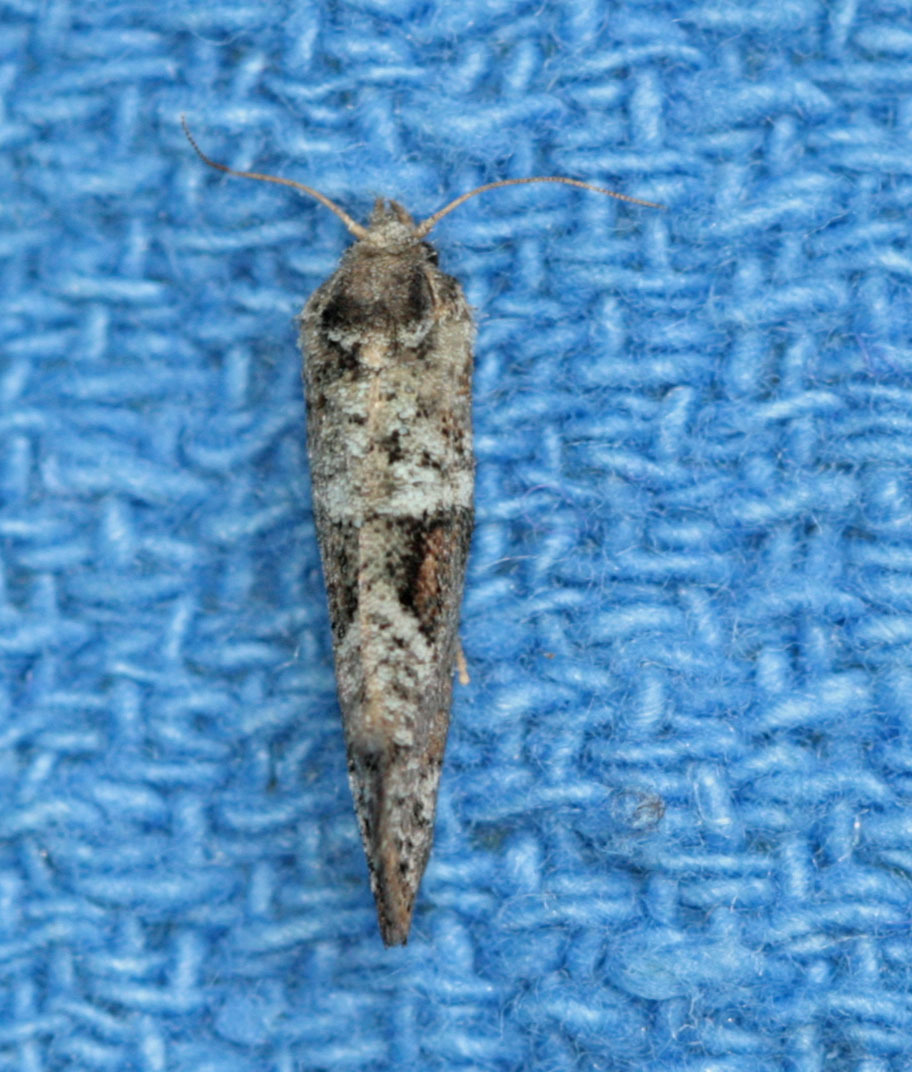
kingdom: Animalia
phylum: Arthropoda
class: Insecta
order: Lepidoptera
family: Tineidae
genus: Acrolophus
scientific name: Acrolophus piger
